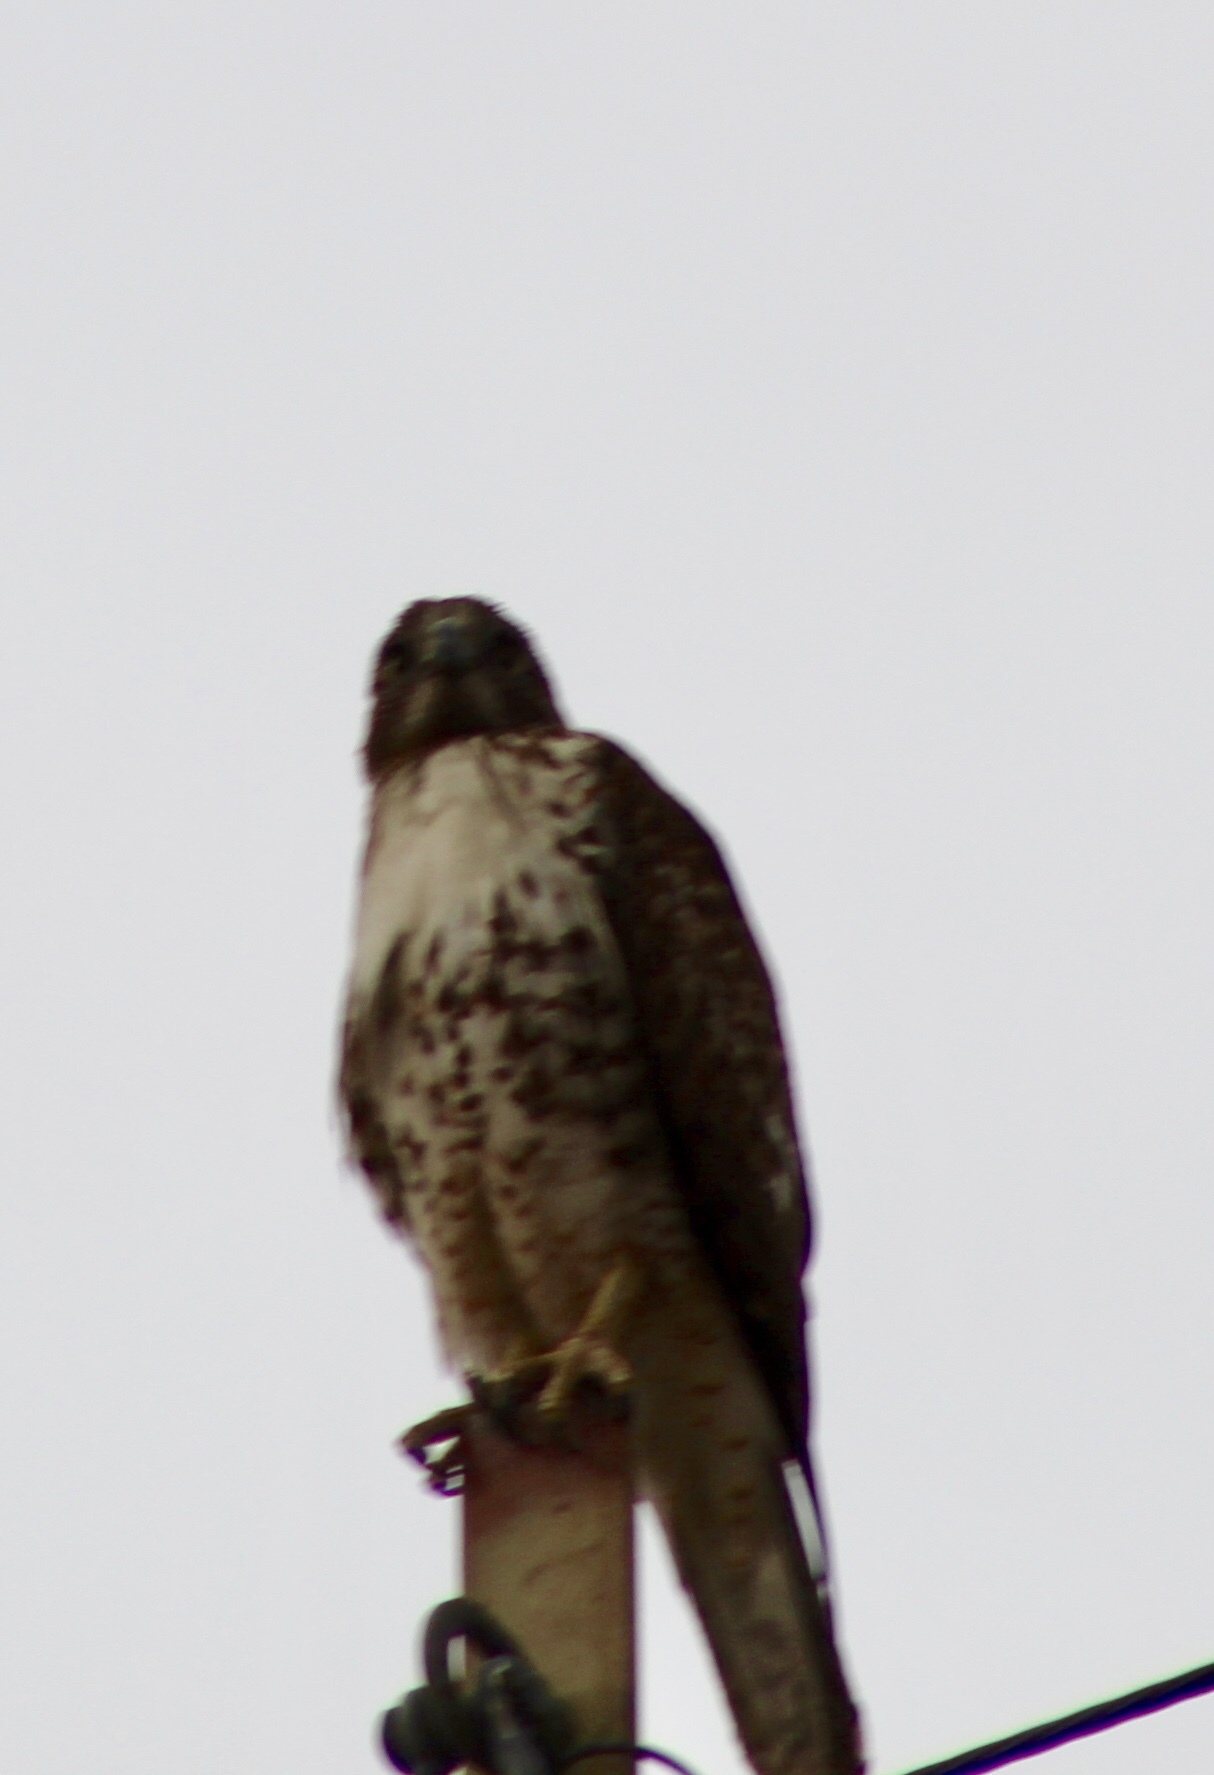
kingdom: Animalia
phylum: Chordata
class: Aves
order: Accipitriformes
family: Accipitridae
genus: Buteo
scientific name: Buteo jamaicensis
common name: Red-tailed hawk
